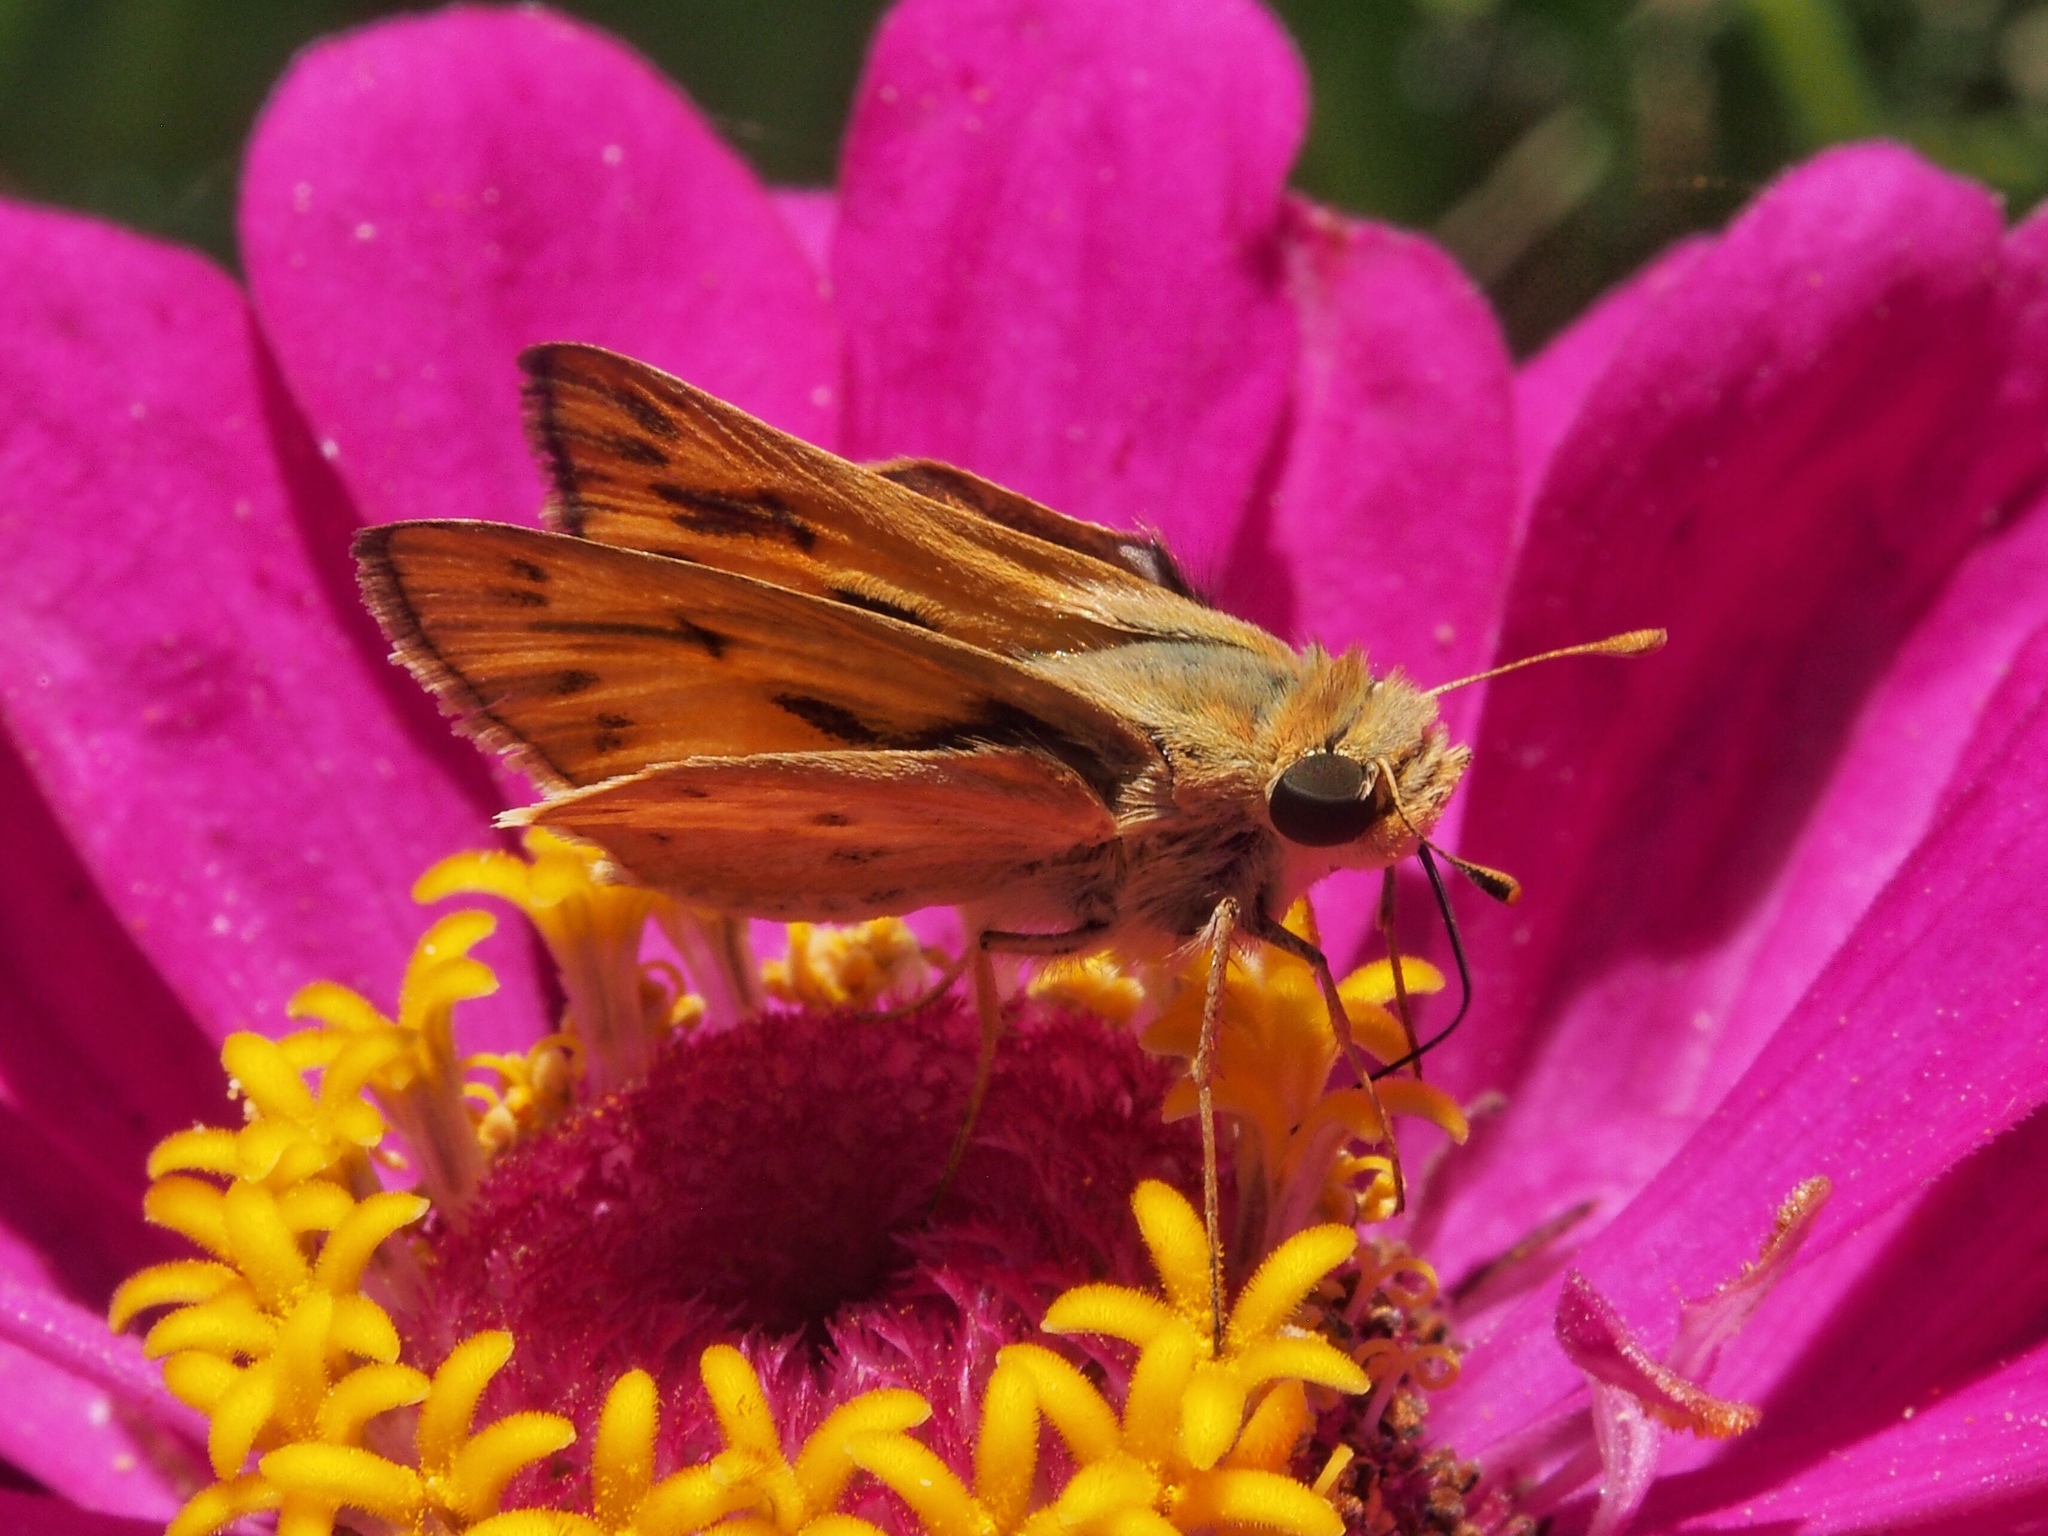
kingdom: Animalia
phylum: Arthropoda
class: Insecta
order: Lepidoptera
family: Hesperiidae
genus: Hylephila
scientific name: Hylephila phyleus
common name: Fiery skipper
